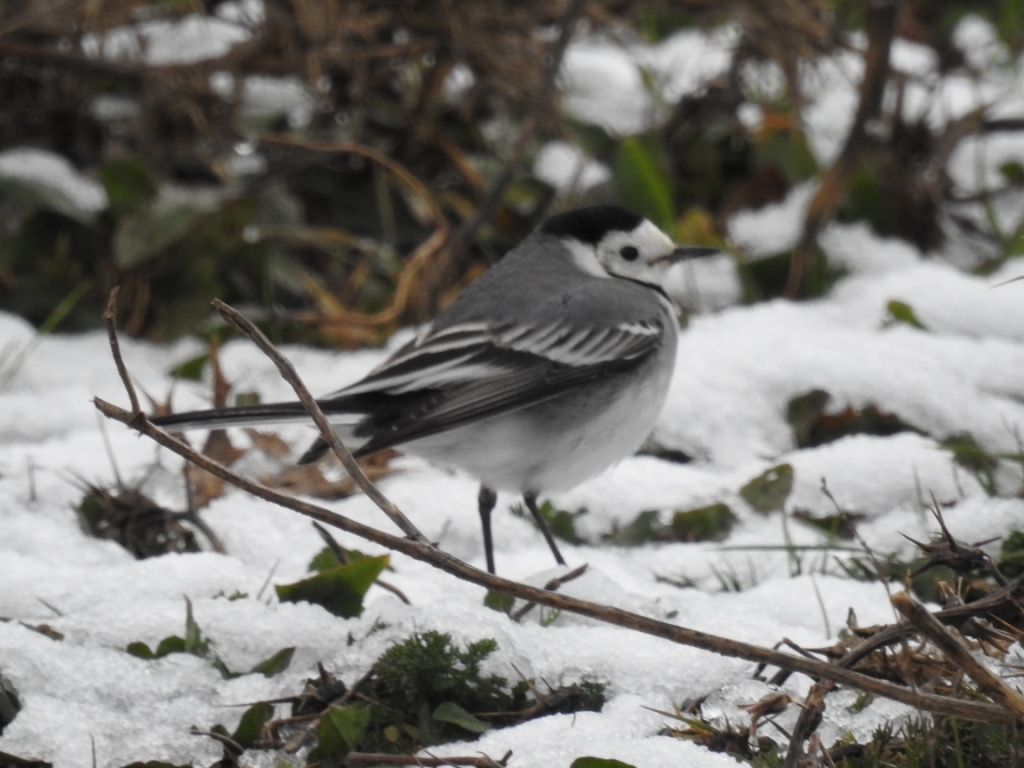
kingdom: Animalia
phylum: Chordata
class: Aves
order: Passeriformes
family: Motacillidae
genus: Motacilla
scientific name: Motacilla alba
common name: White wagtail
